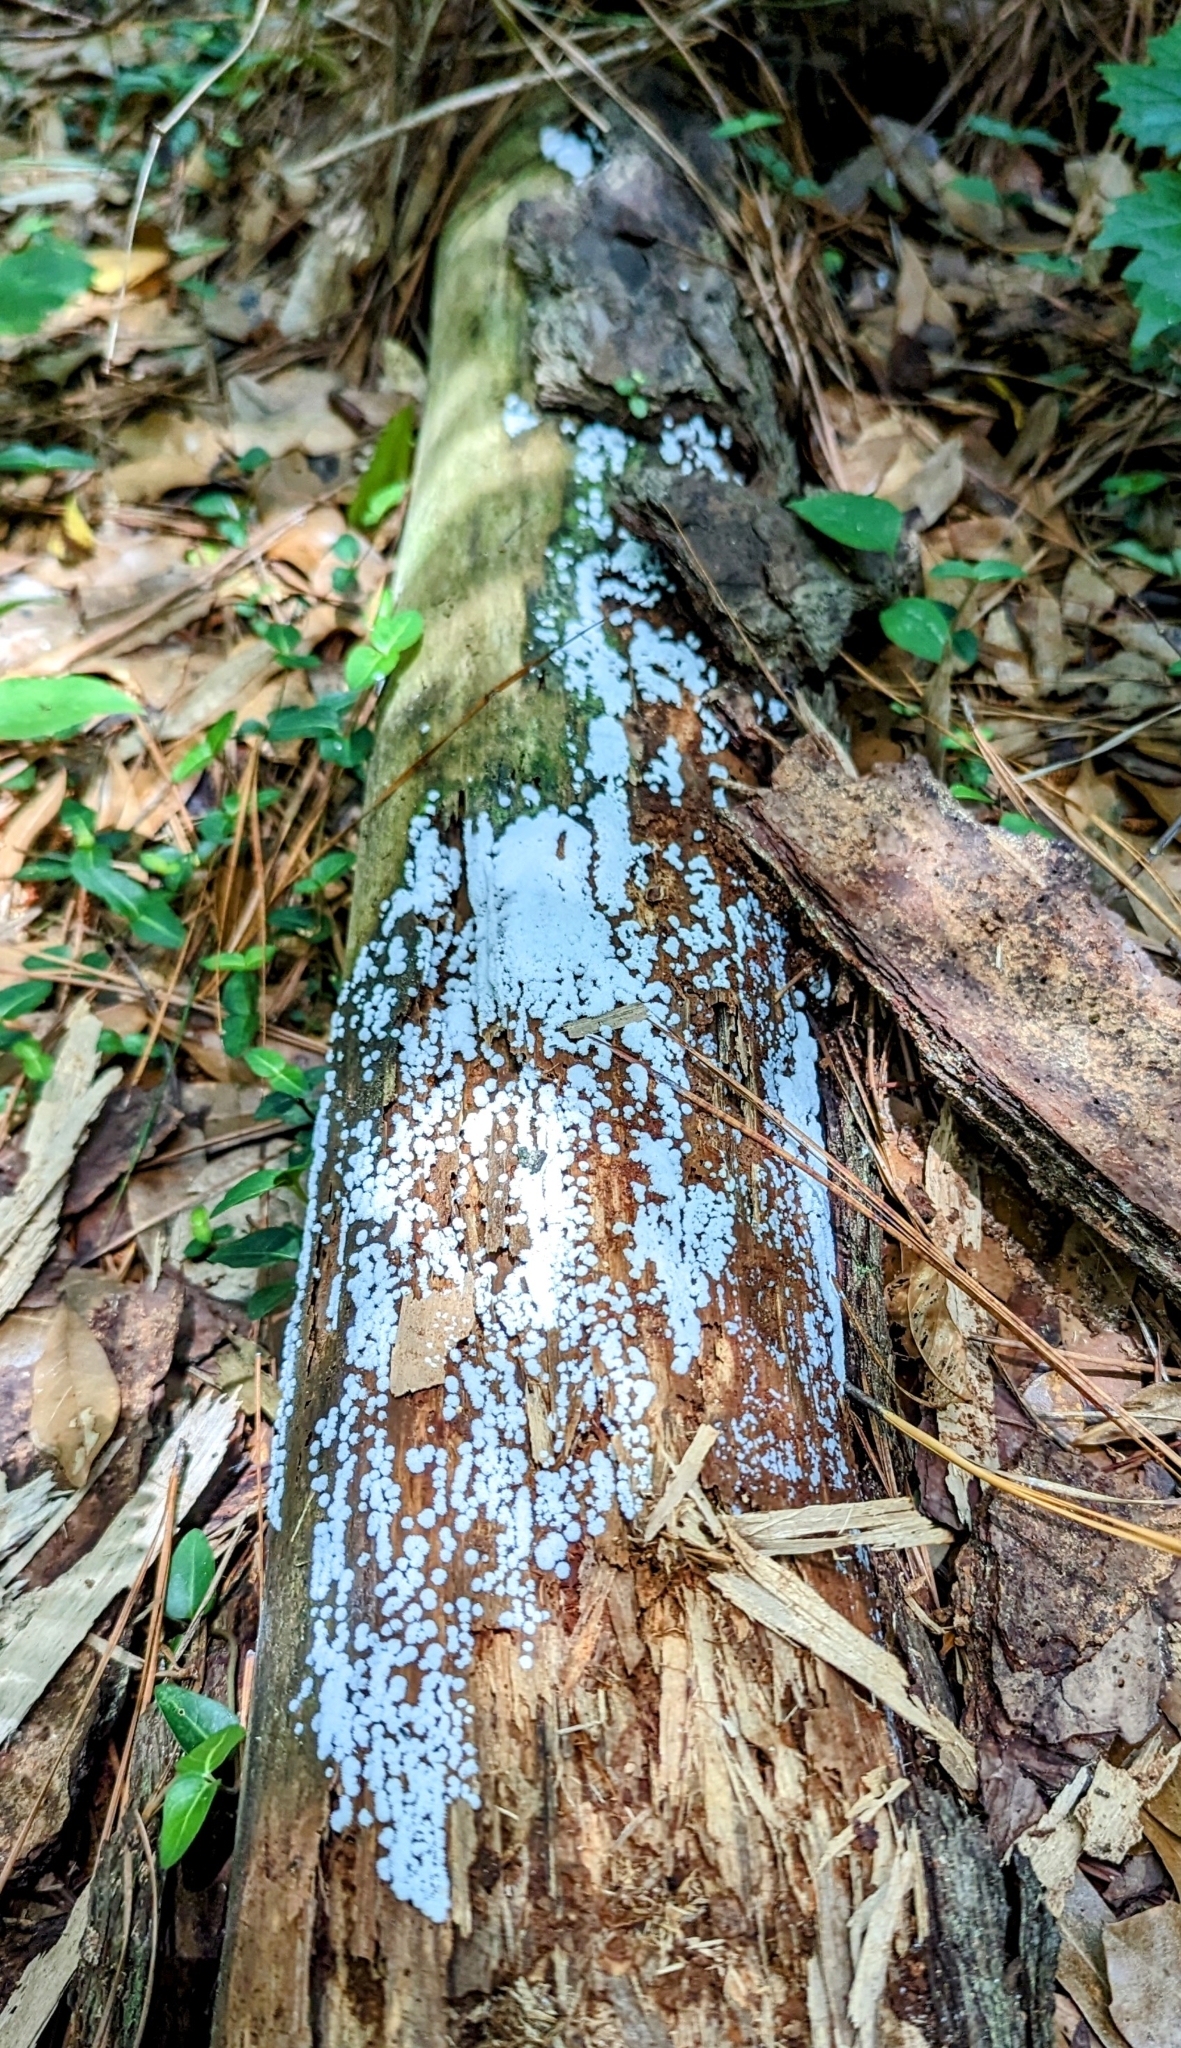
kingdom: Protozoa
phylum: Mycetozoa
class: Protosteliomycetes
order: Ceratiomyxales
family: Ceratiomyxaceae
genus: Ceratiomyxa
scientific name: Ceratiomyxa fruticulosa
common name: Honeycomb coral slime mold
